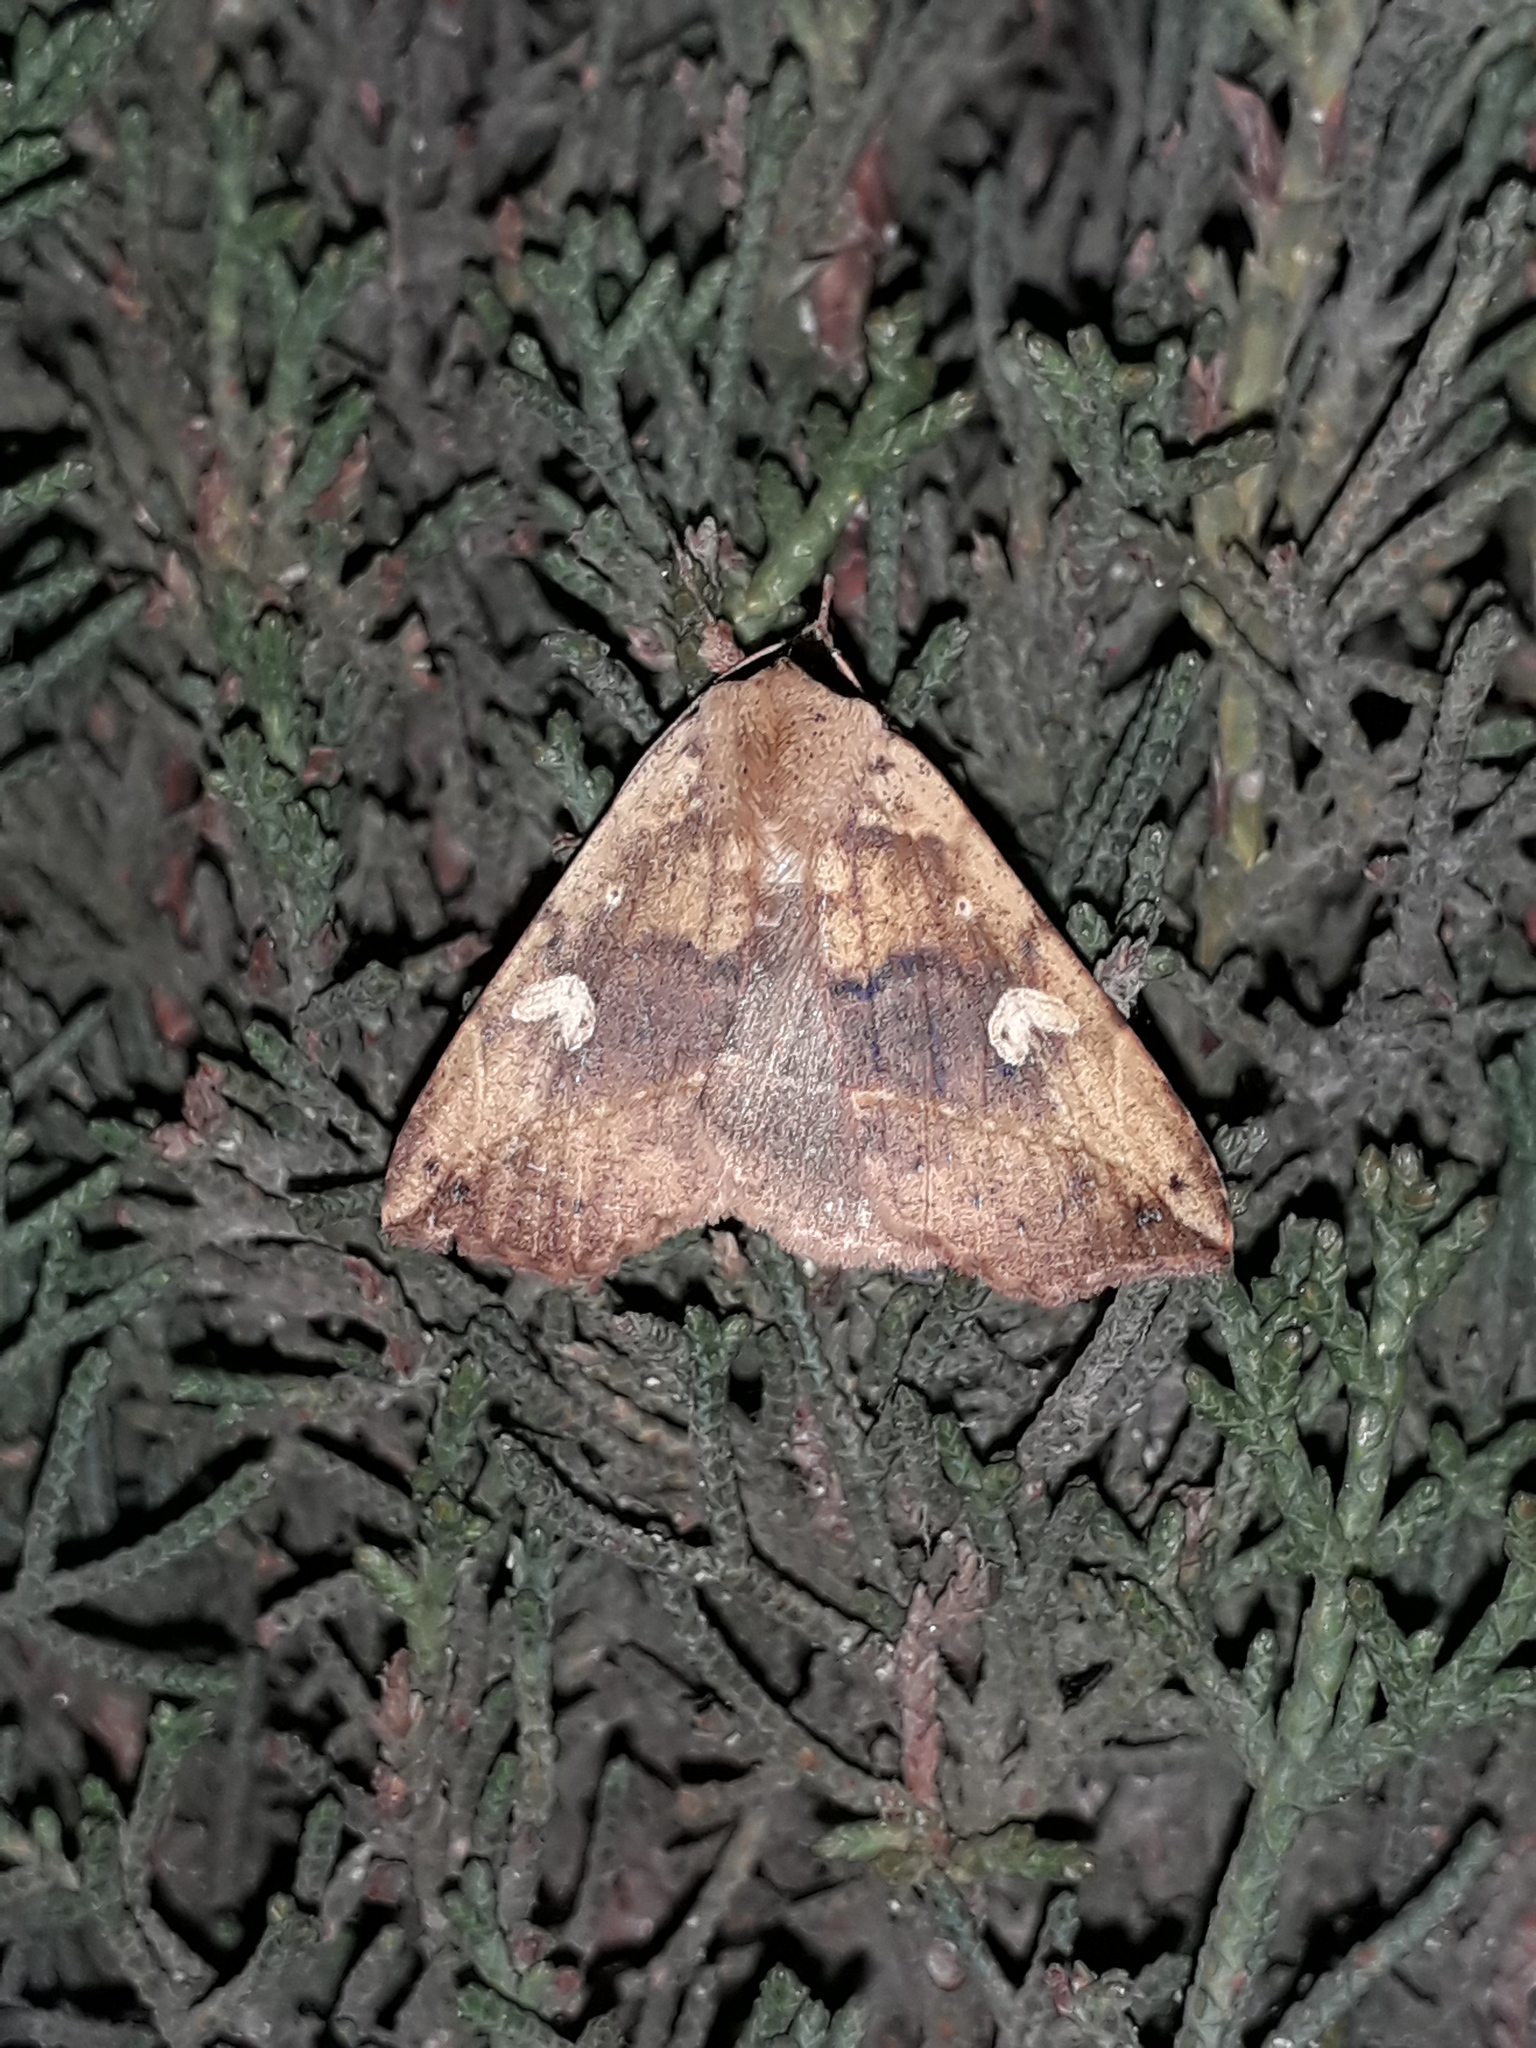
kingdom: Animalia
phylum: Arthropoda
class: Insecta
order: Lepidoptera
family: Erebidae
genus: Goniocarsia
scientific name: Goniocarsia electrica
